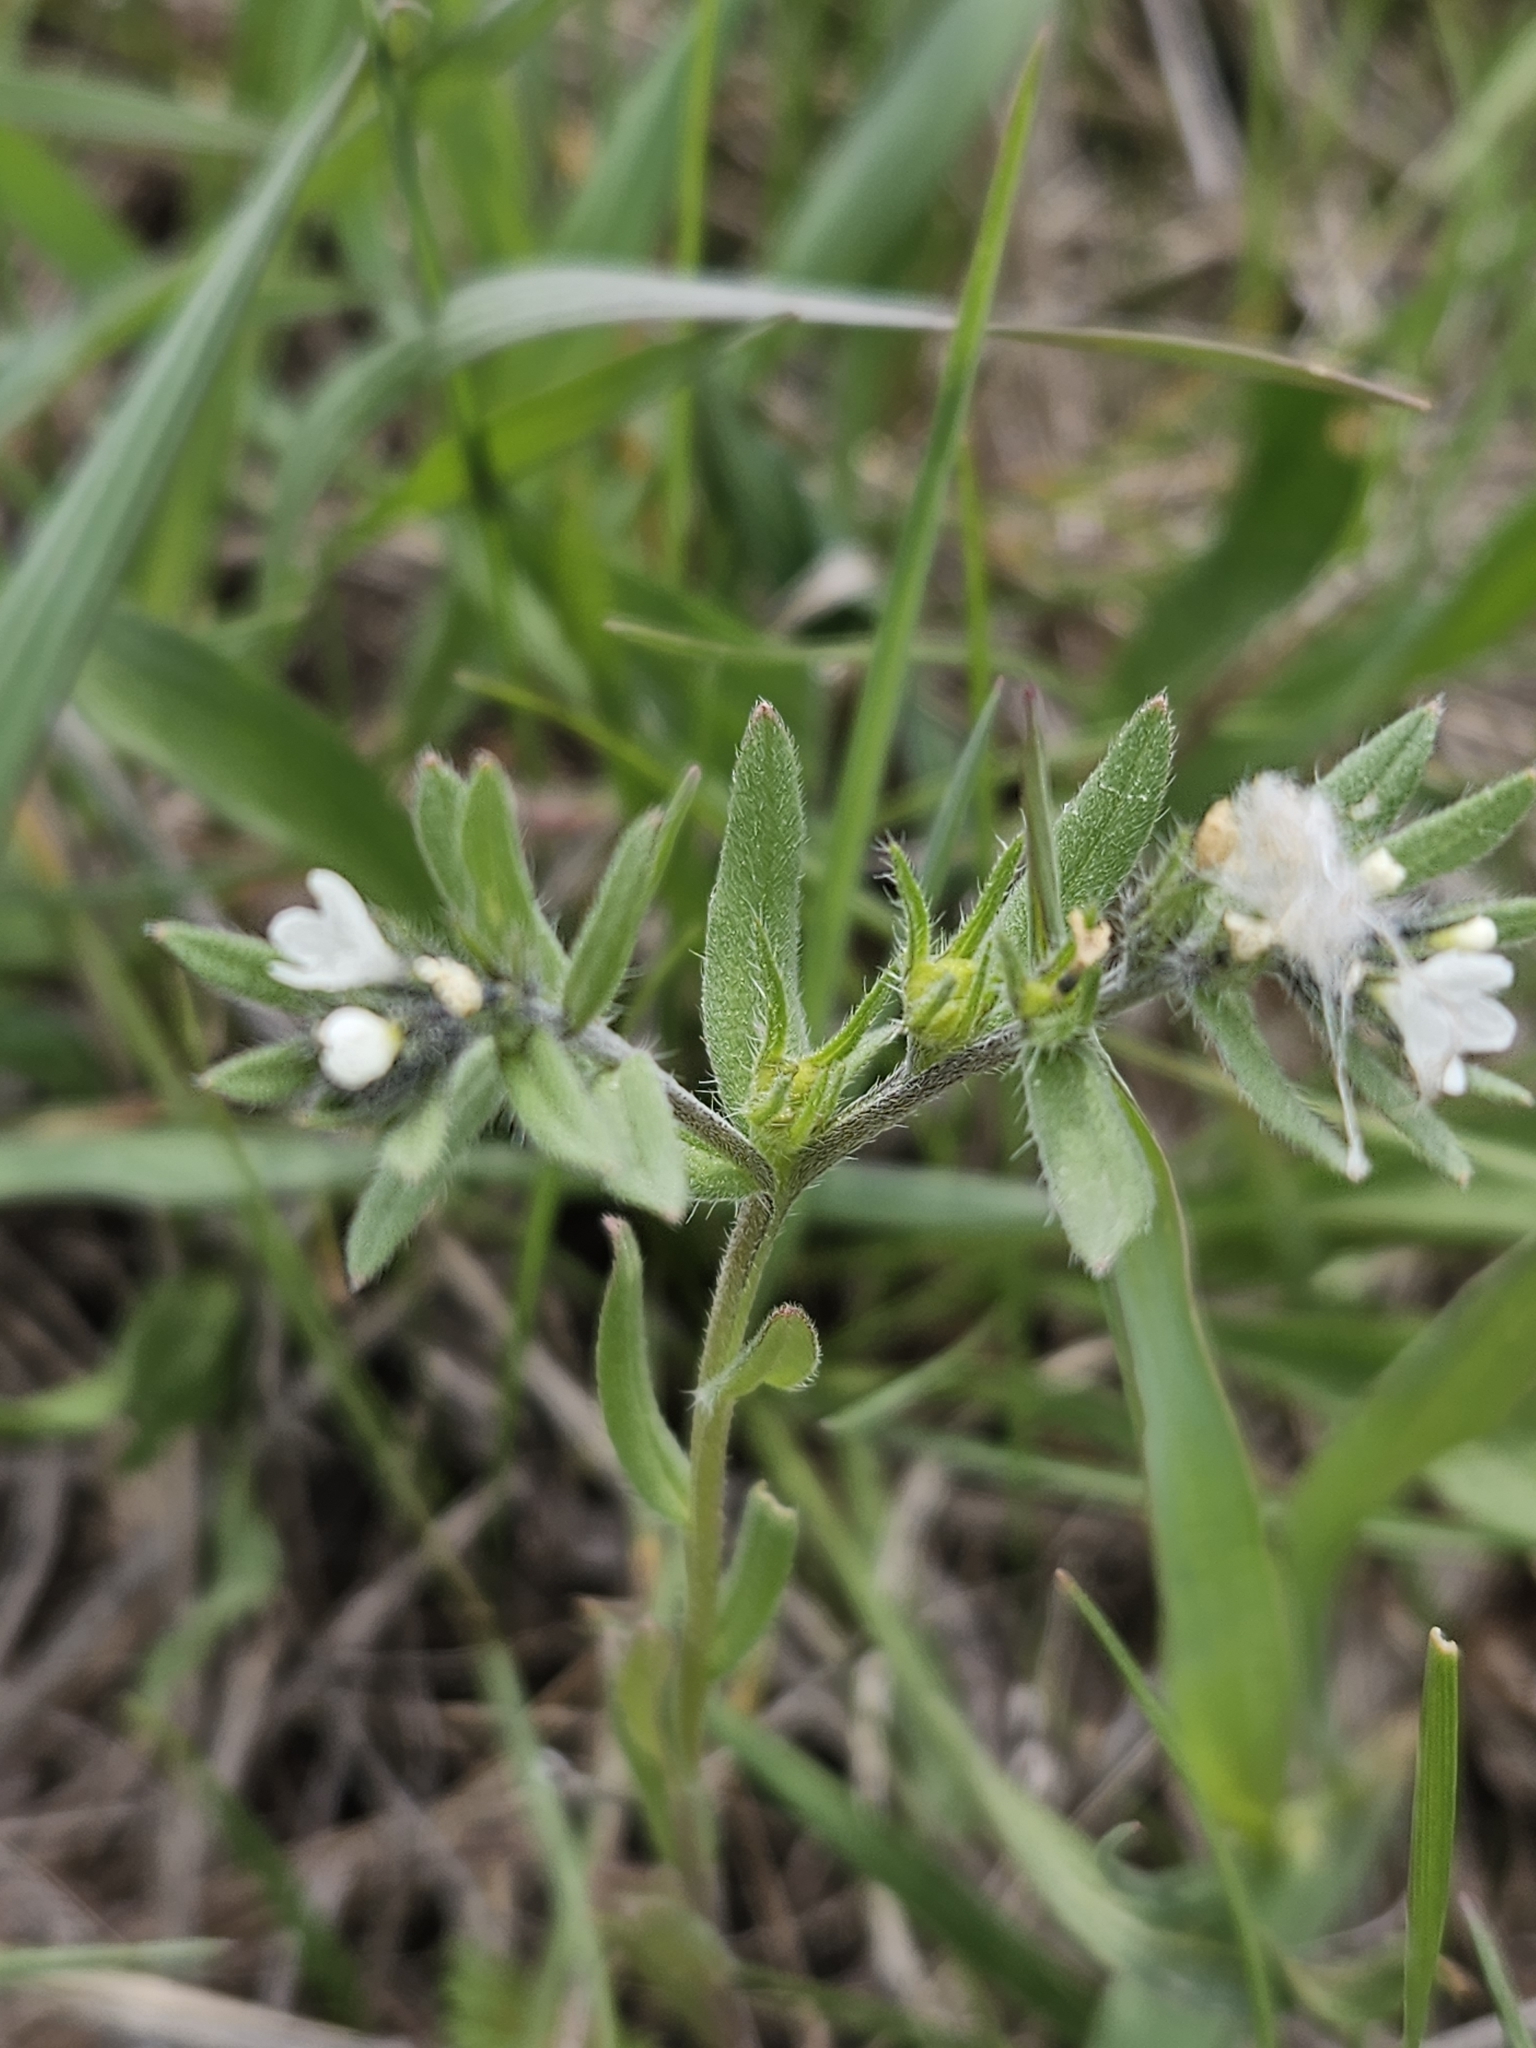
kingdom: Plantae
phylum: Tracheophyta
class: Magnoliopsida
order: Boraginales
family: Boraginaceae
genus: Buglossoides
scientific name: Buglossoides arvensis
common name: Corn gromwell
